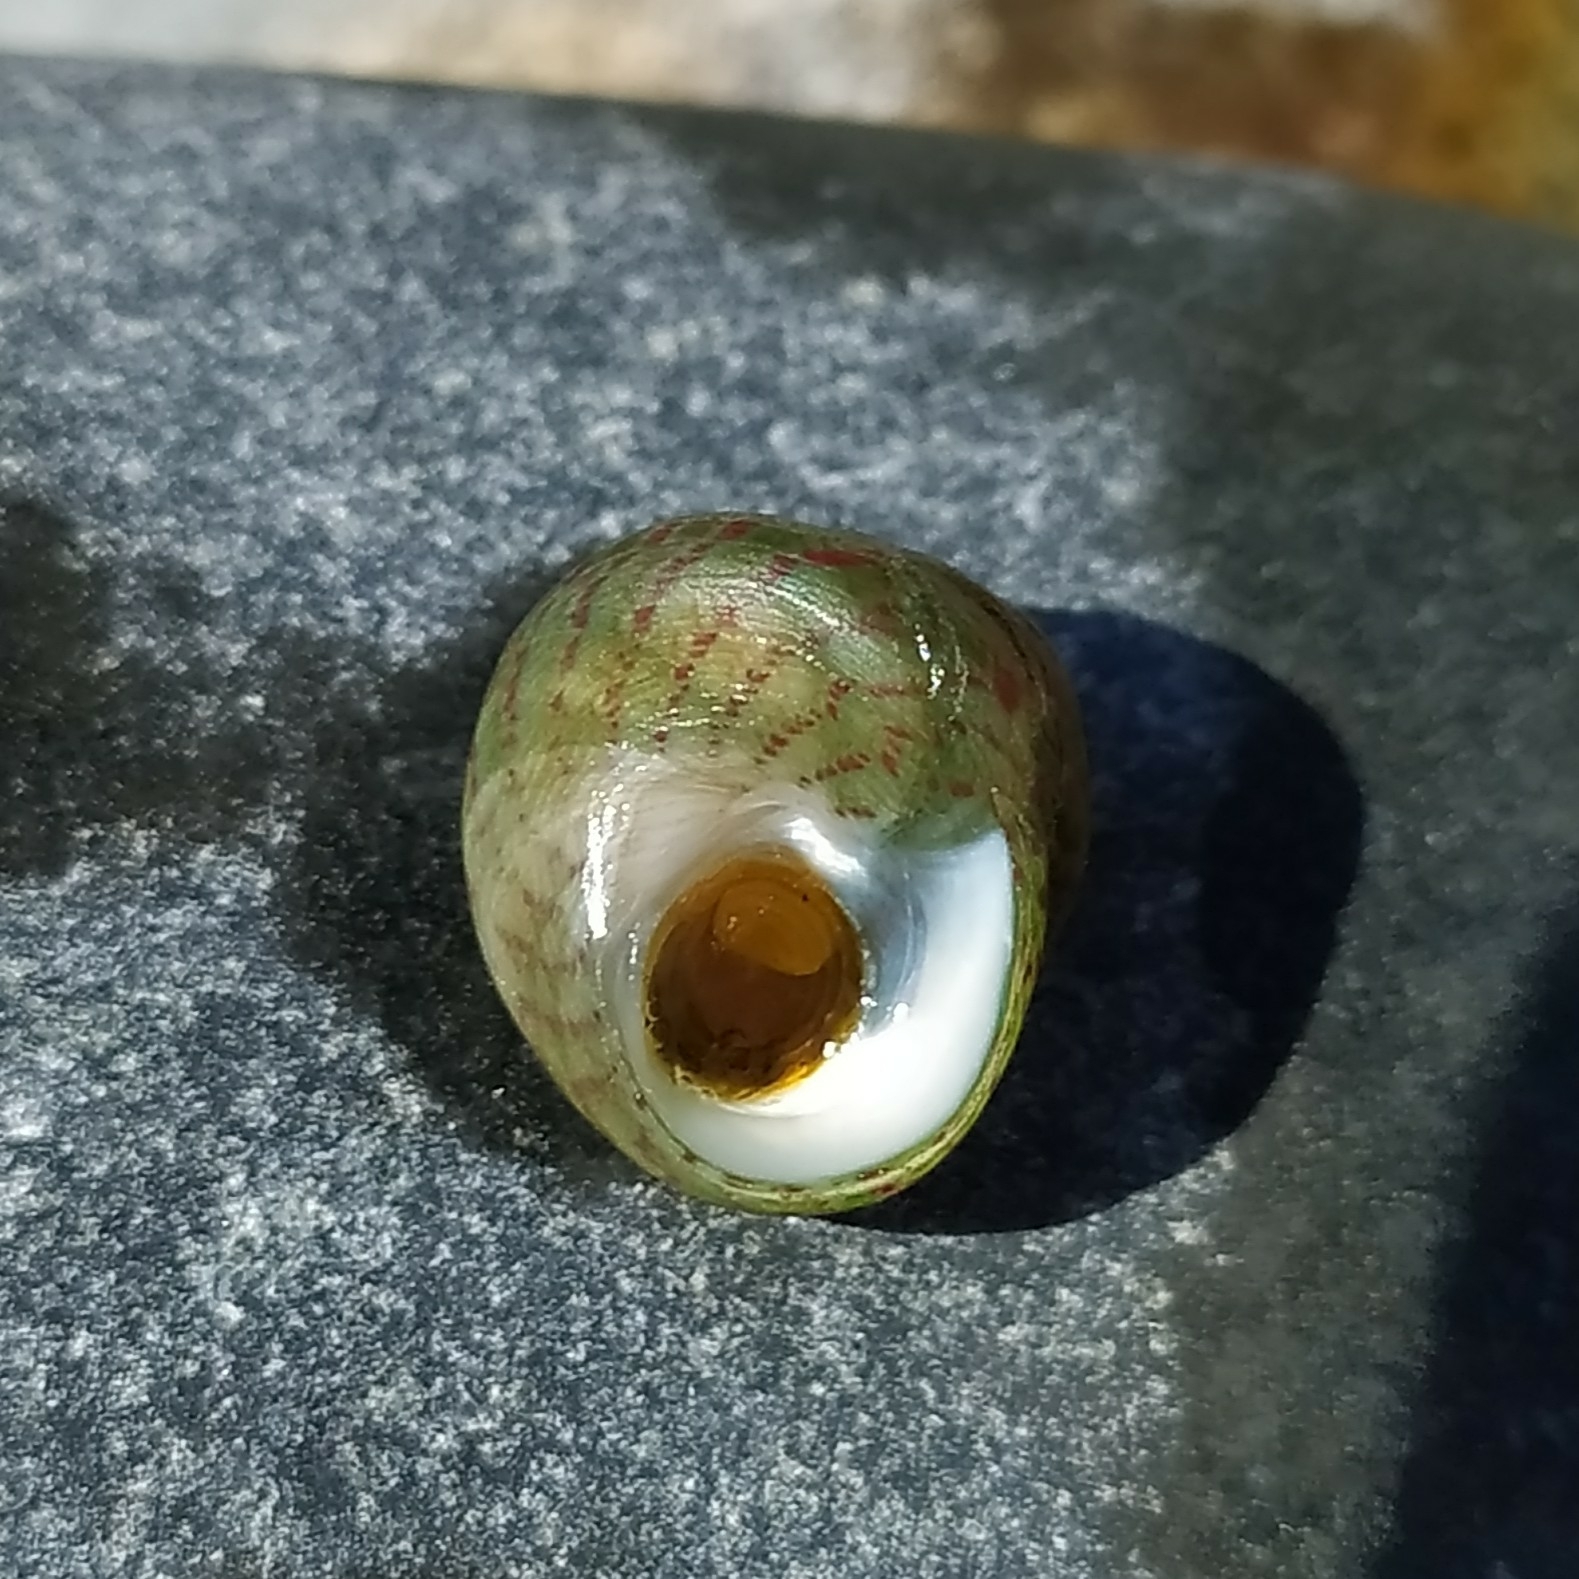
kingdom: Animalia
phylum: Mollusca
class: Gastropoda
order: Trochida
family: Trochidae
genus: Steromphala
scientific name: Steromphala divaricata
